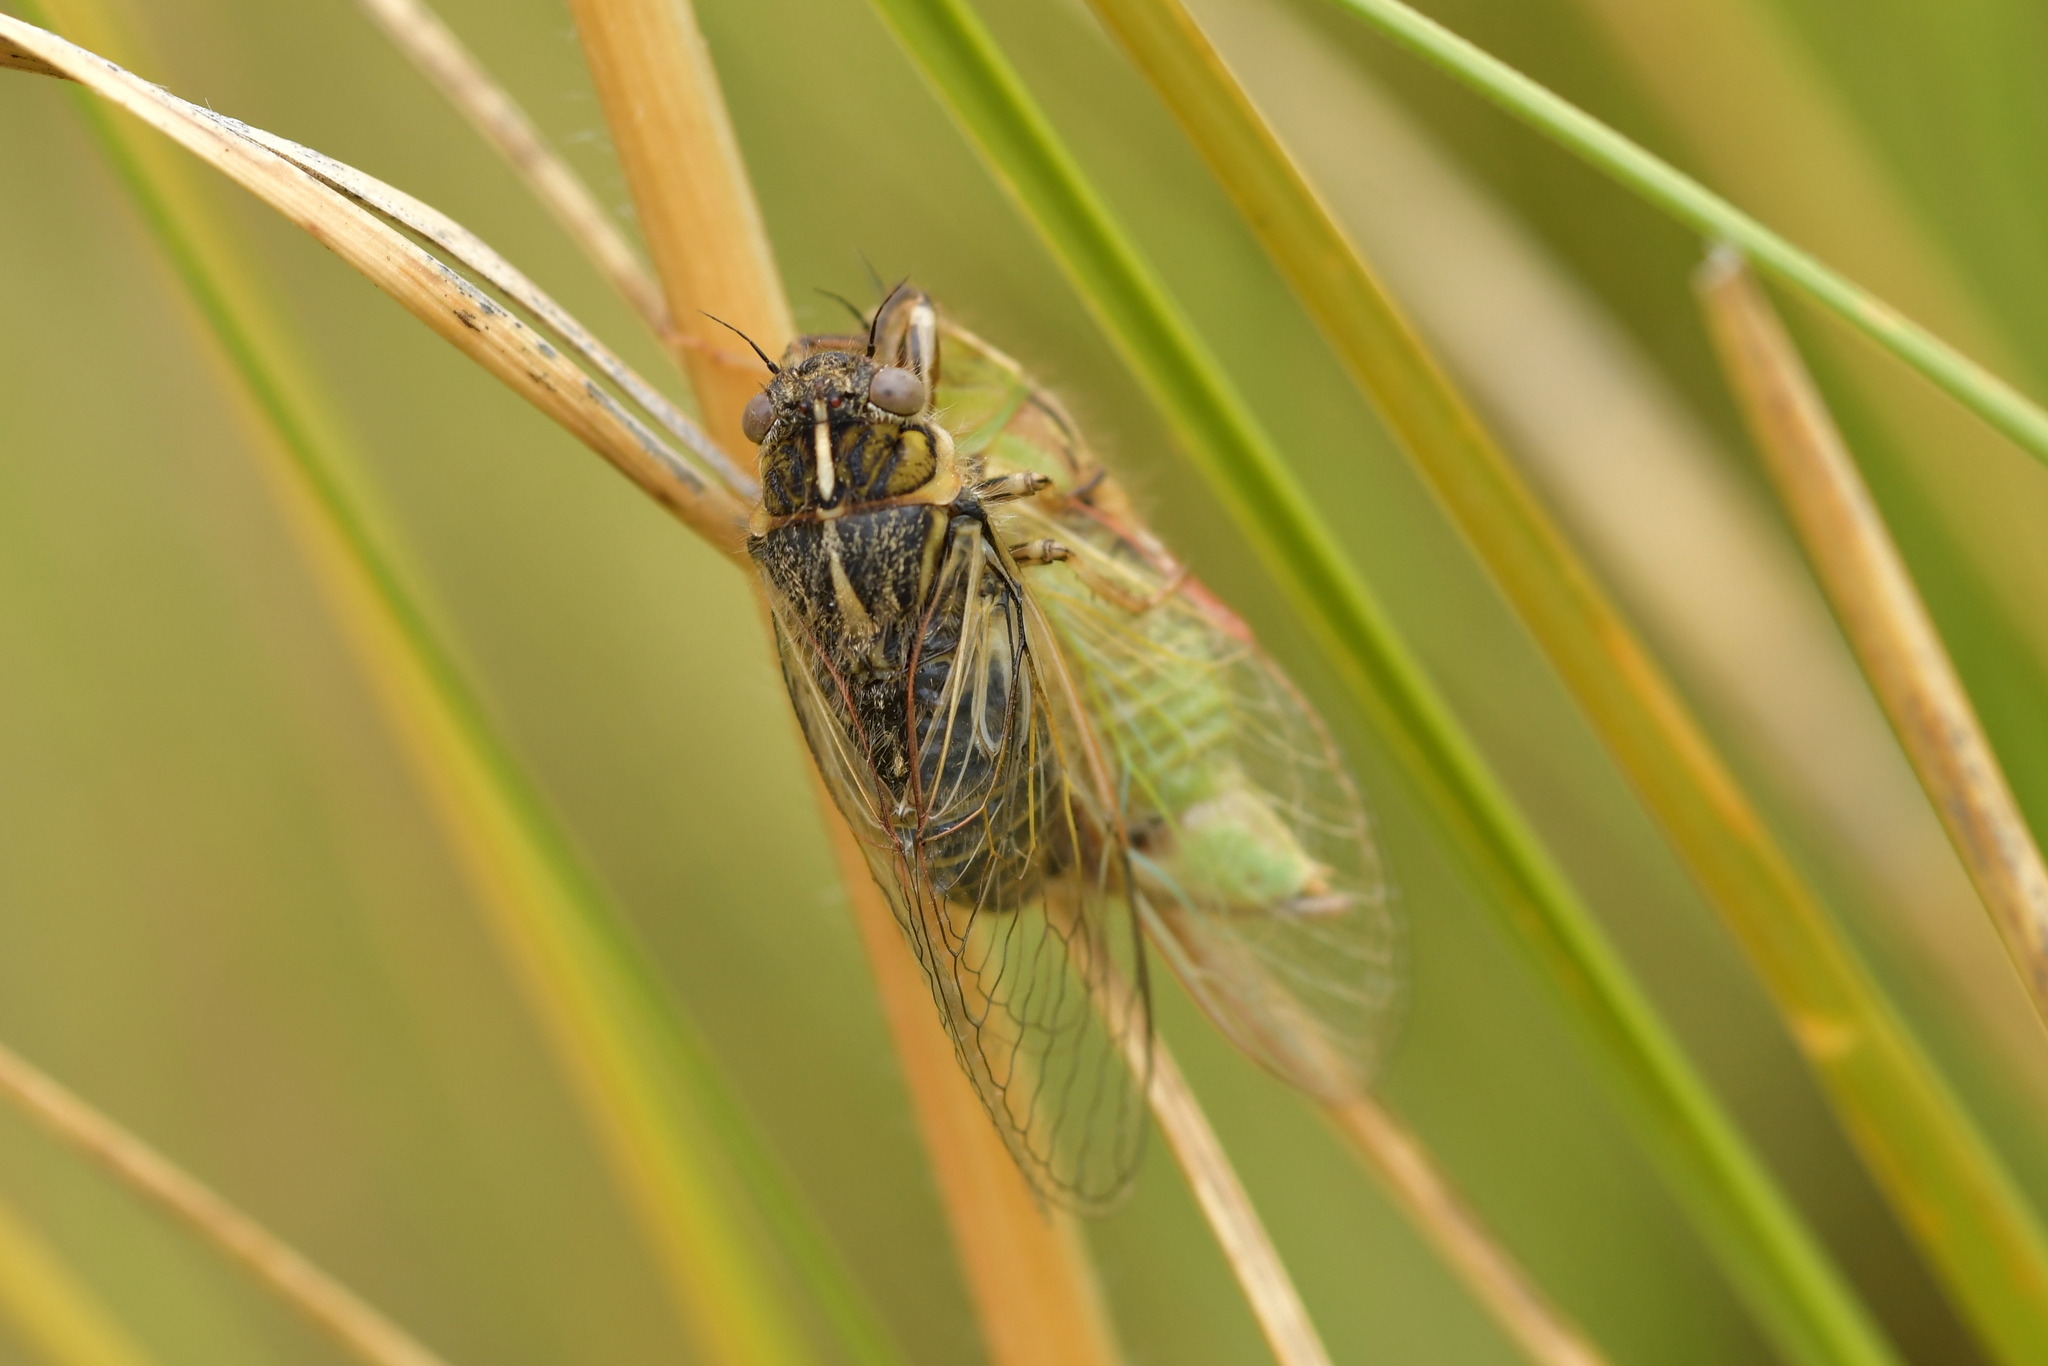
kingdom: Animalia
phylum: Arthropoda
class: Insecta
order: Hemiptera
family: Cicadidae
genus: Kikihia
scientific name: Kikihia angusta
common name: Tussock cicada
